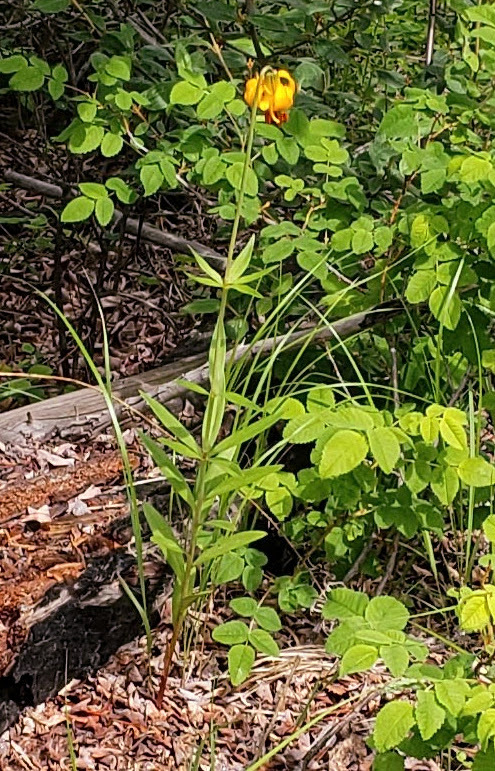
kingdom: Plantae
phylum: Tracheophyta
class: Liliopsida
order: Liliales
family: Liliaceae
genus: Lilium
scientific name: Lilium columbianum
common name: Columbia lily
